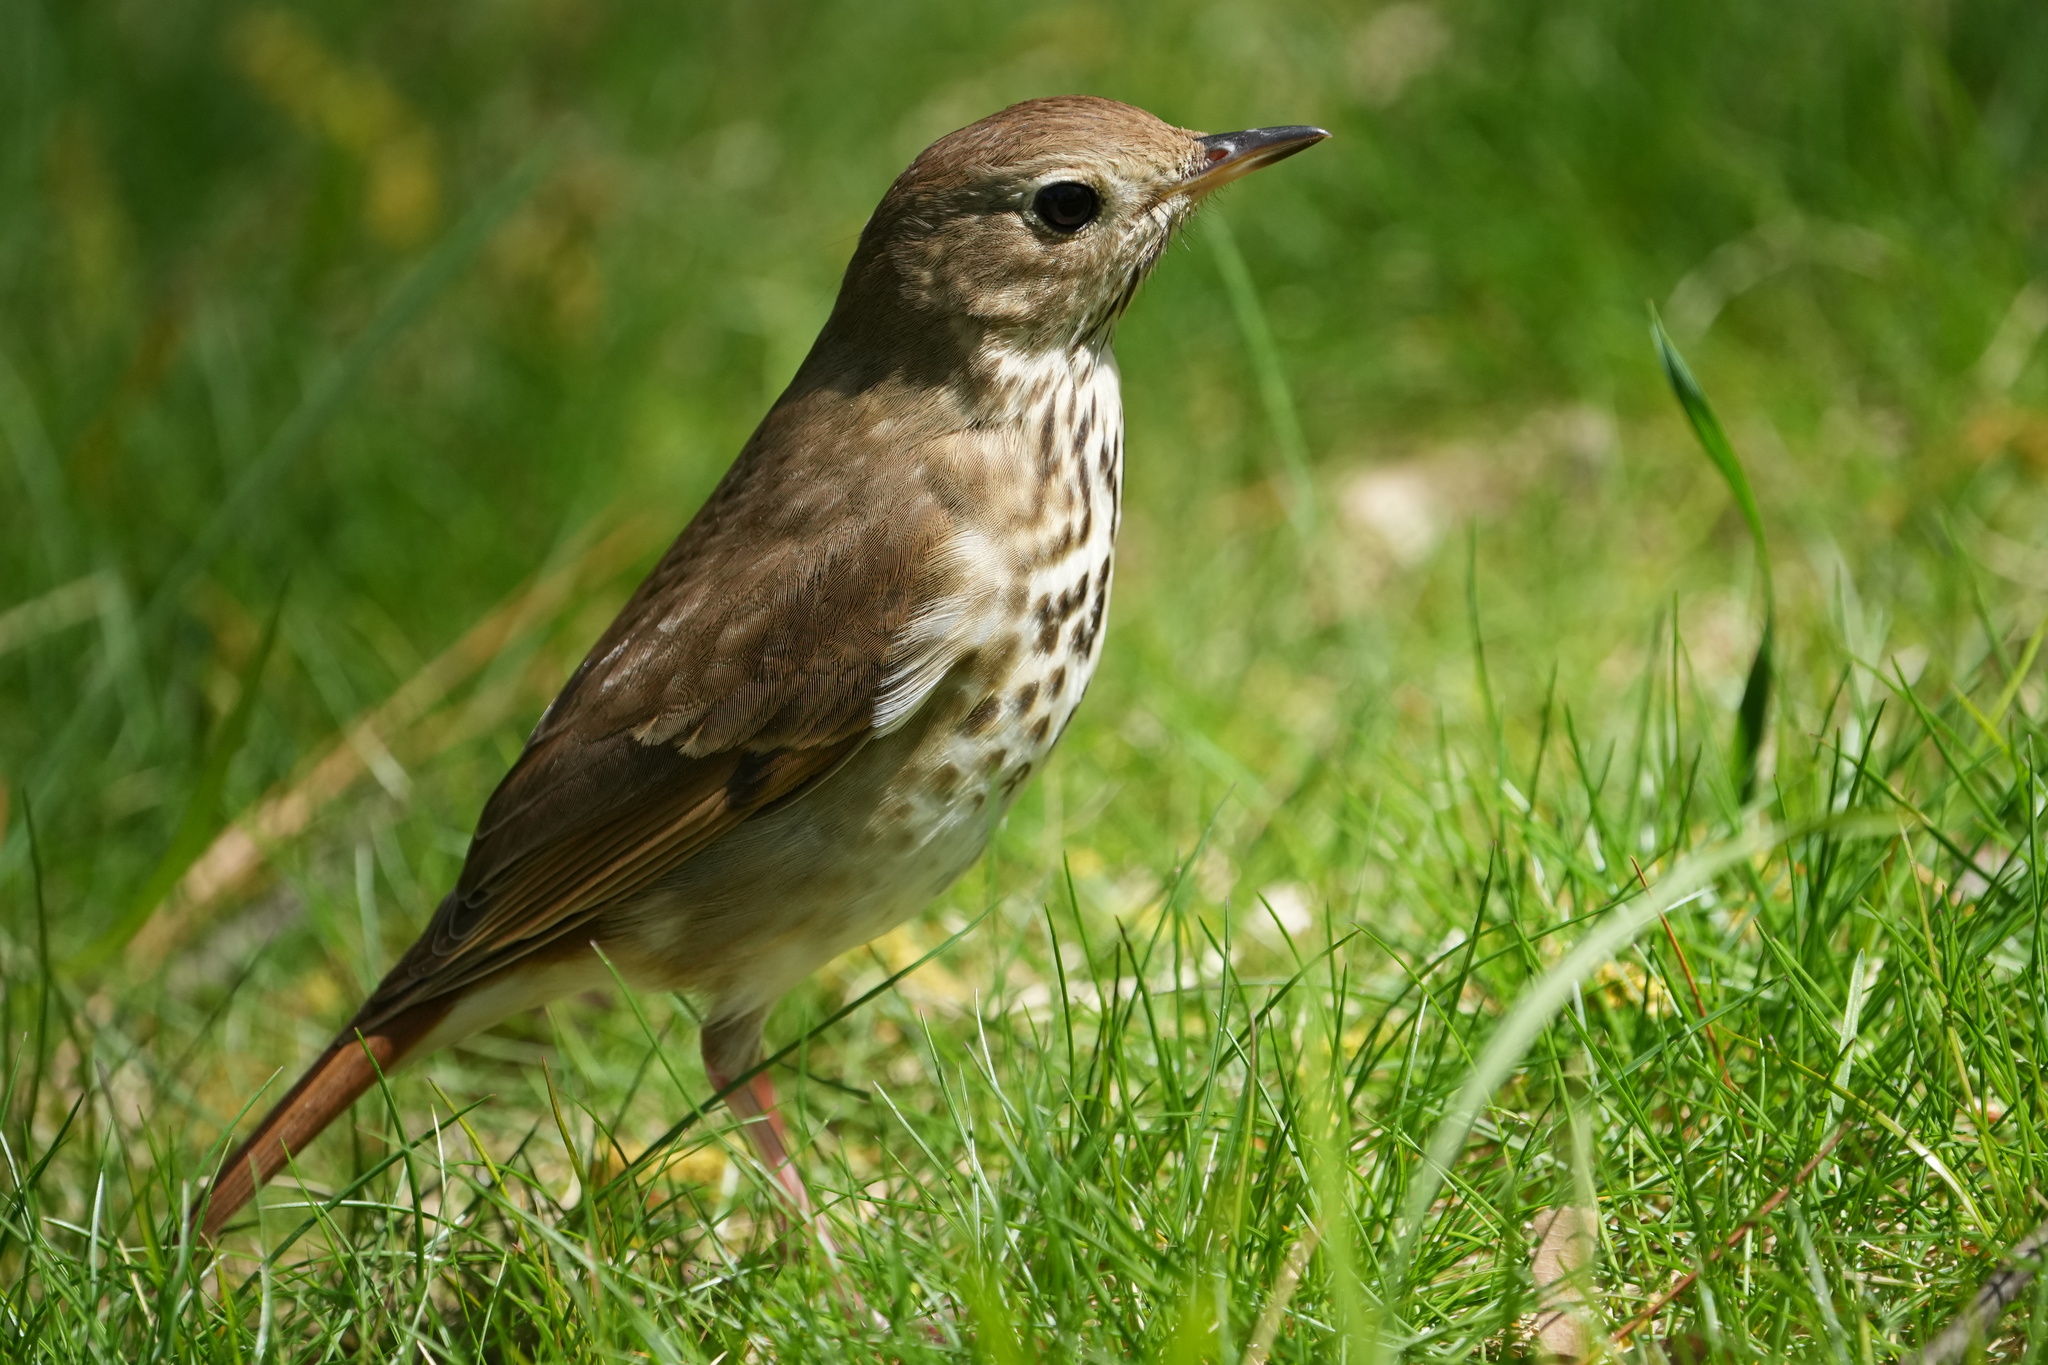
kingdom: Animalia
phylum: Chordata
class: Aves
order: Passeriformes
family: Turdidae
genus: Catharus
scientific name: Catharus guttatus
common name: Hermit thrush
